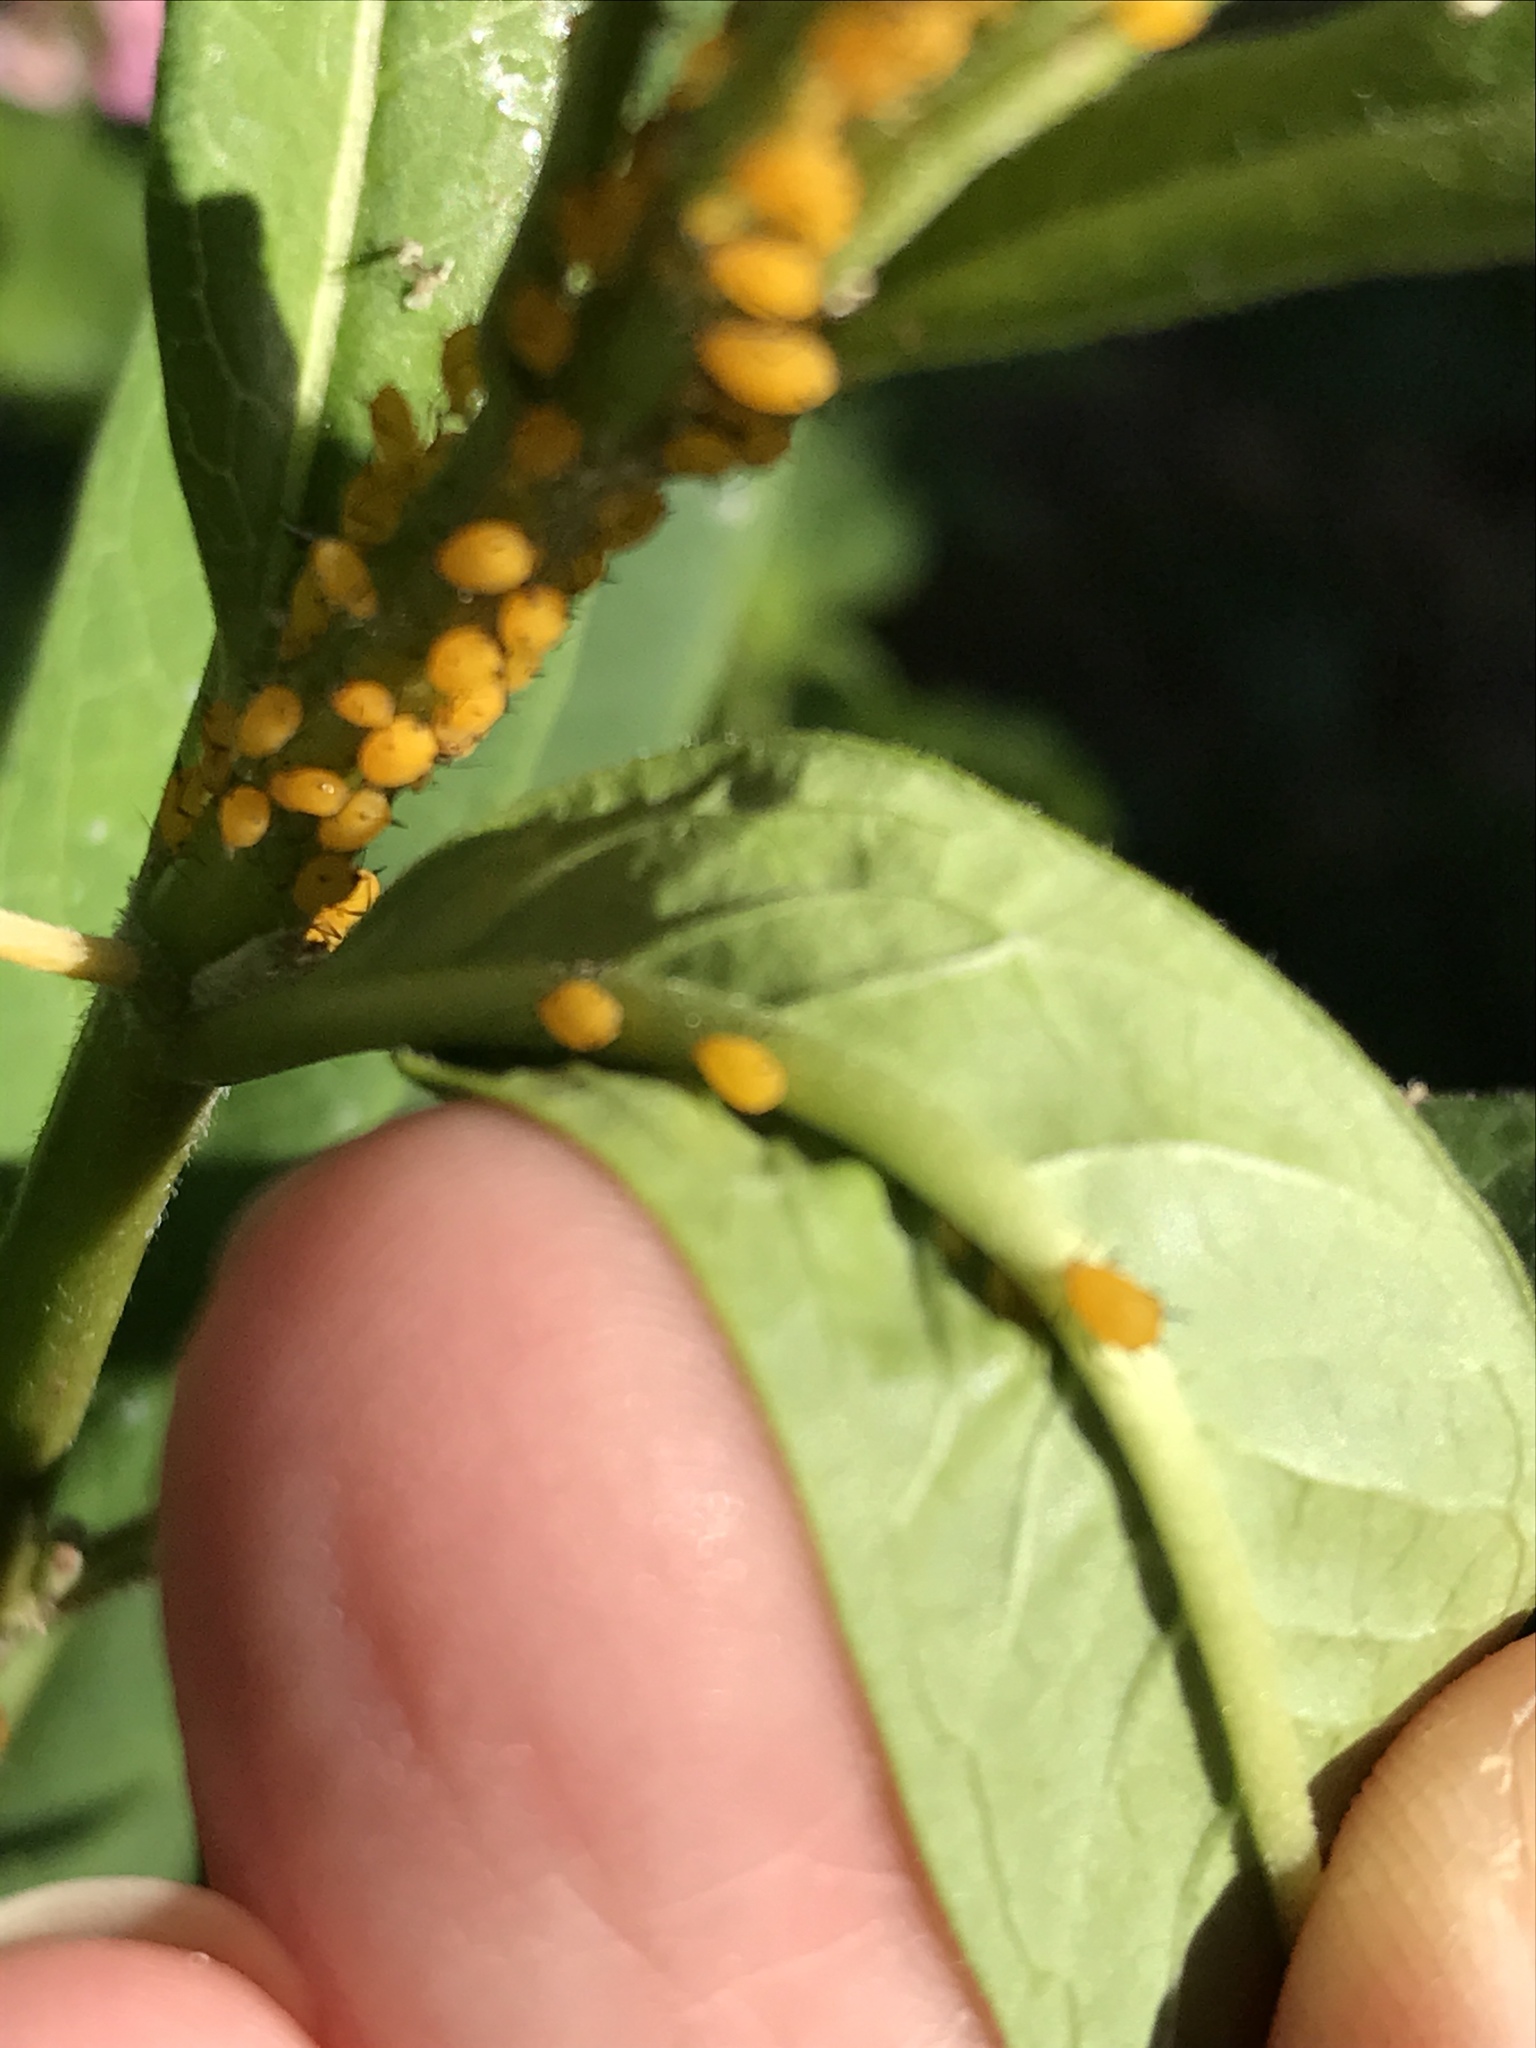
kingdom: Animalia
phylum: Arthropoda
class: Insecta
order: Hemiptera
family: Aphididae
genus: Aphis
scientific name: Aphis nerii
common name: Oleander aphid
